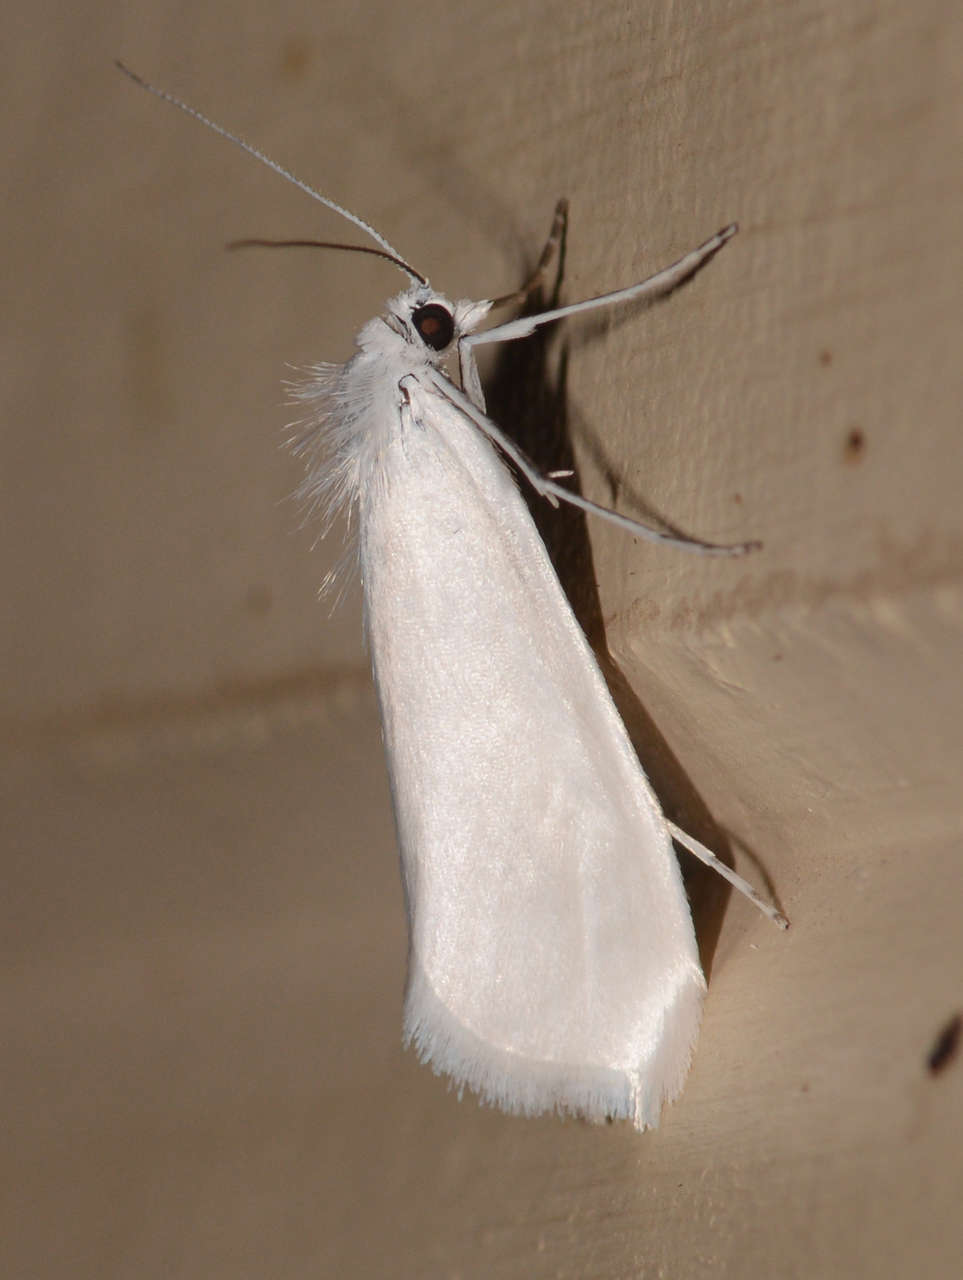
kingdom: Animalia
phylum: Arthropoda
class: Insecta
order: Lepidoptera
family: Crambidae
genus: Tipanaea
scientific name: Tipanaea patulella
